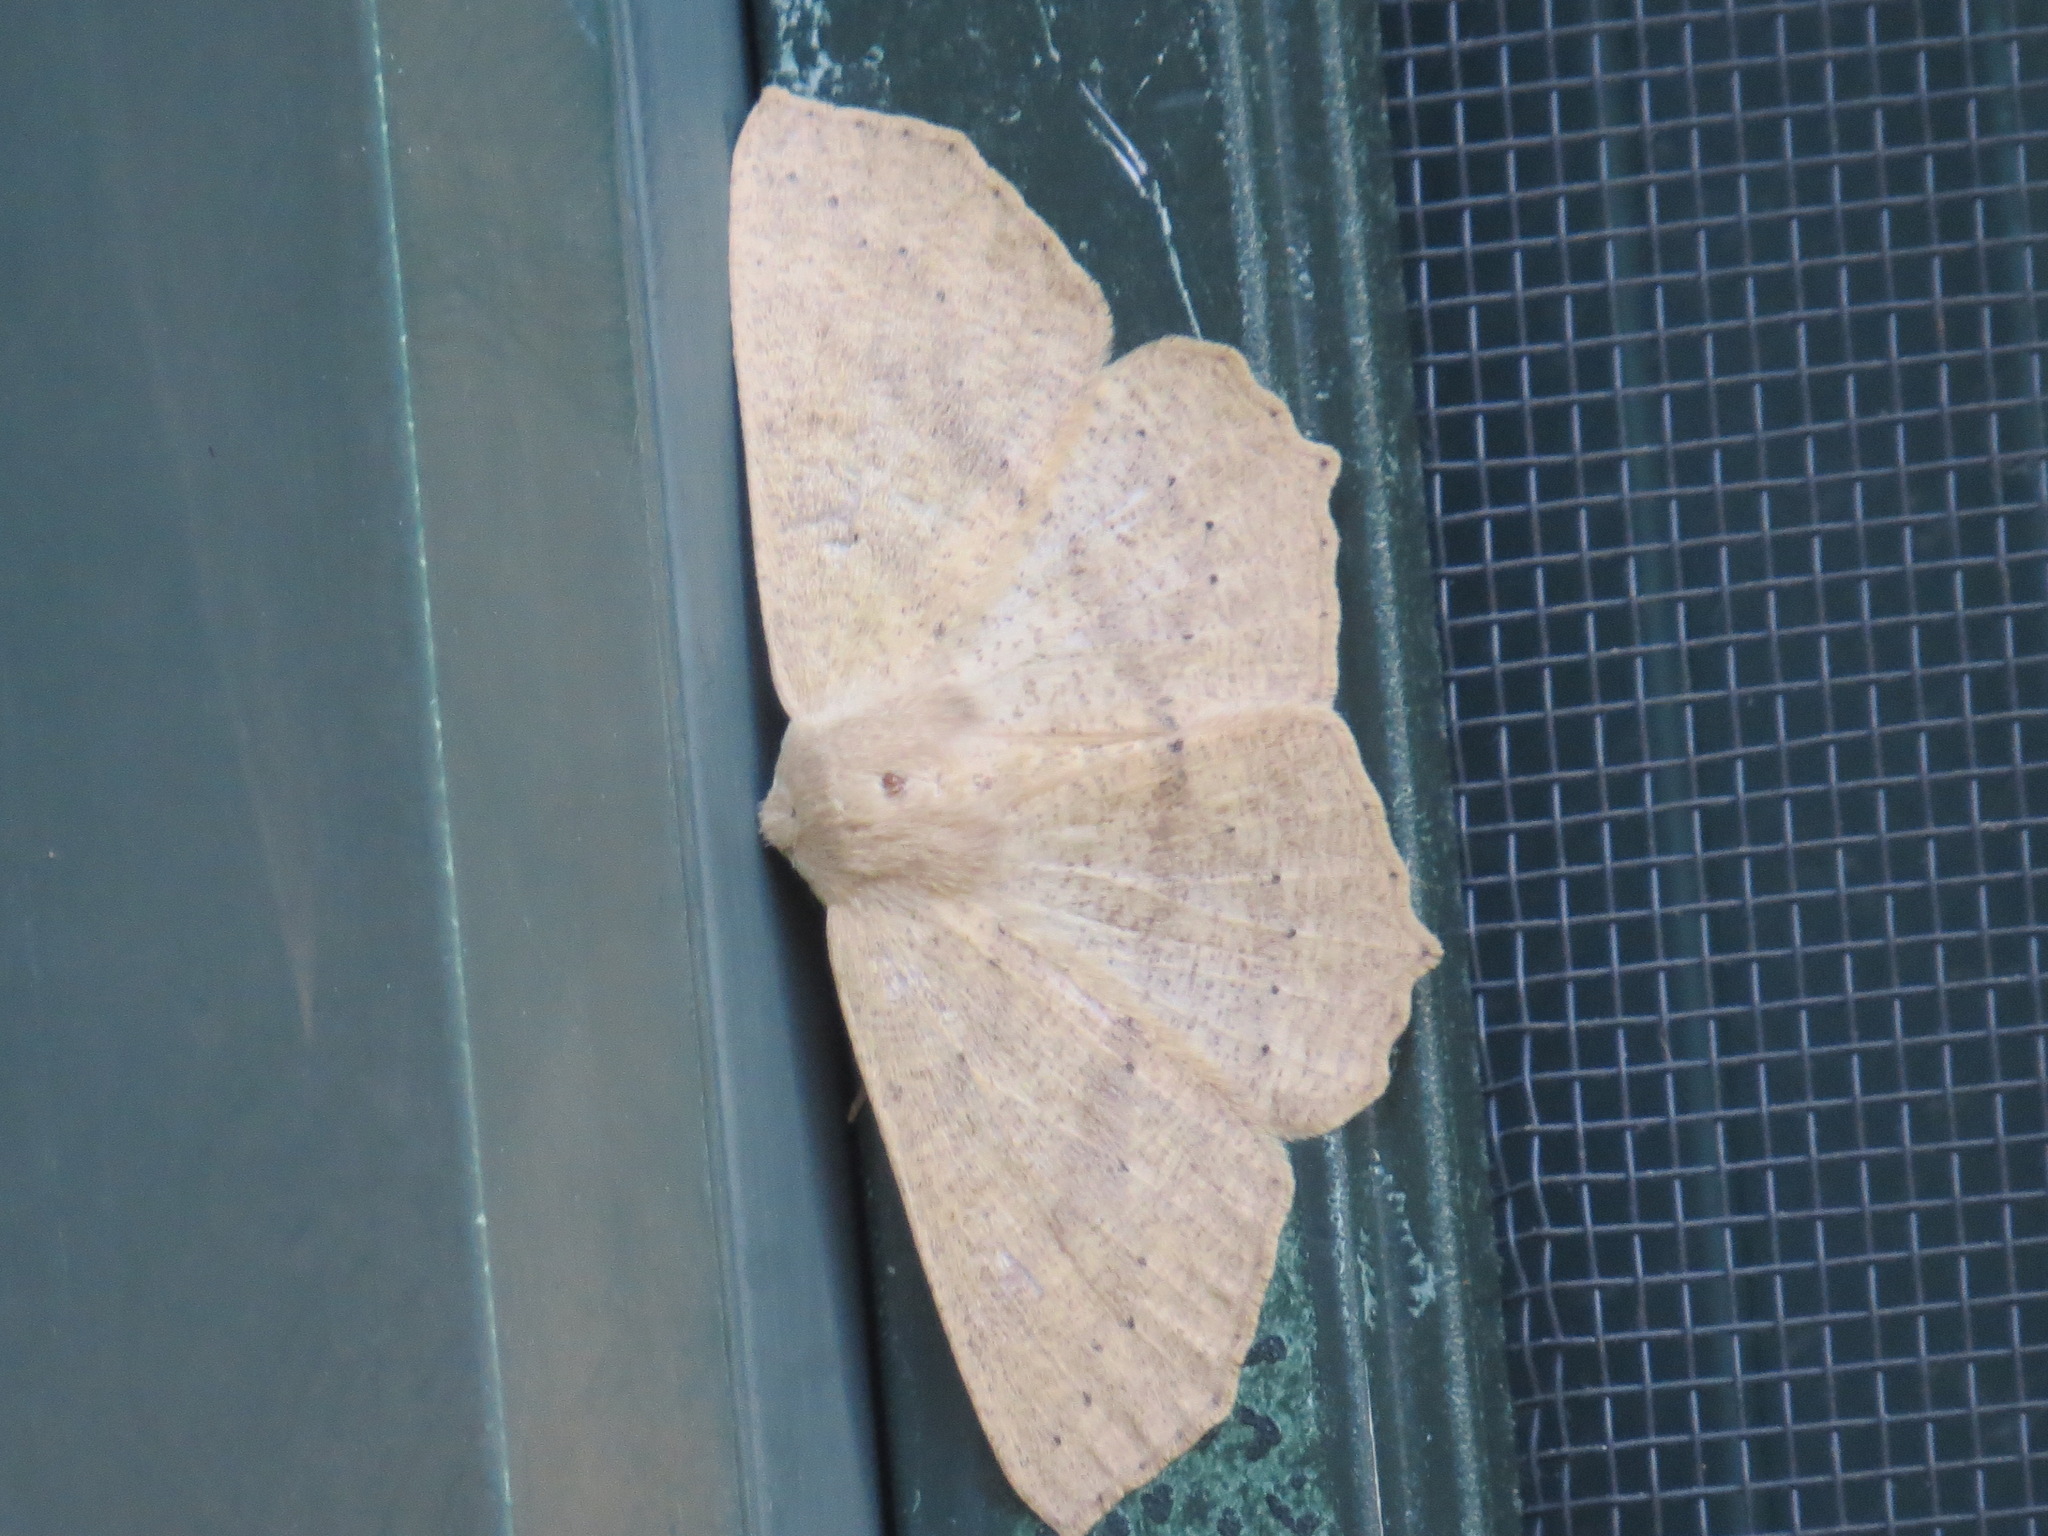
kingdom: Animalia
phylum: Arthropoda
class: Insecta
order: Lepidoptera
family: Geometridae
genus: Sabulodes
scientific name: Sabulodes aegrotata
